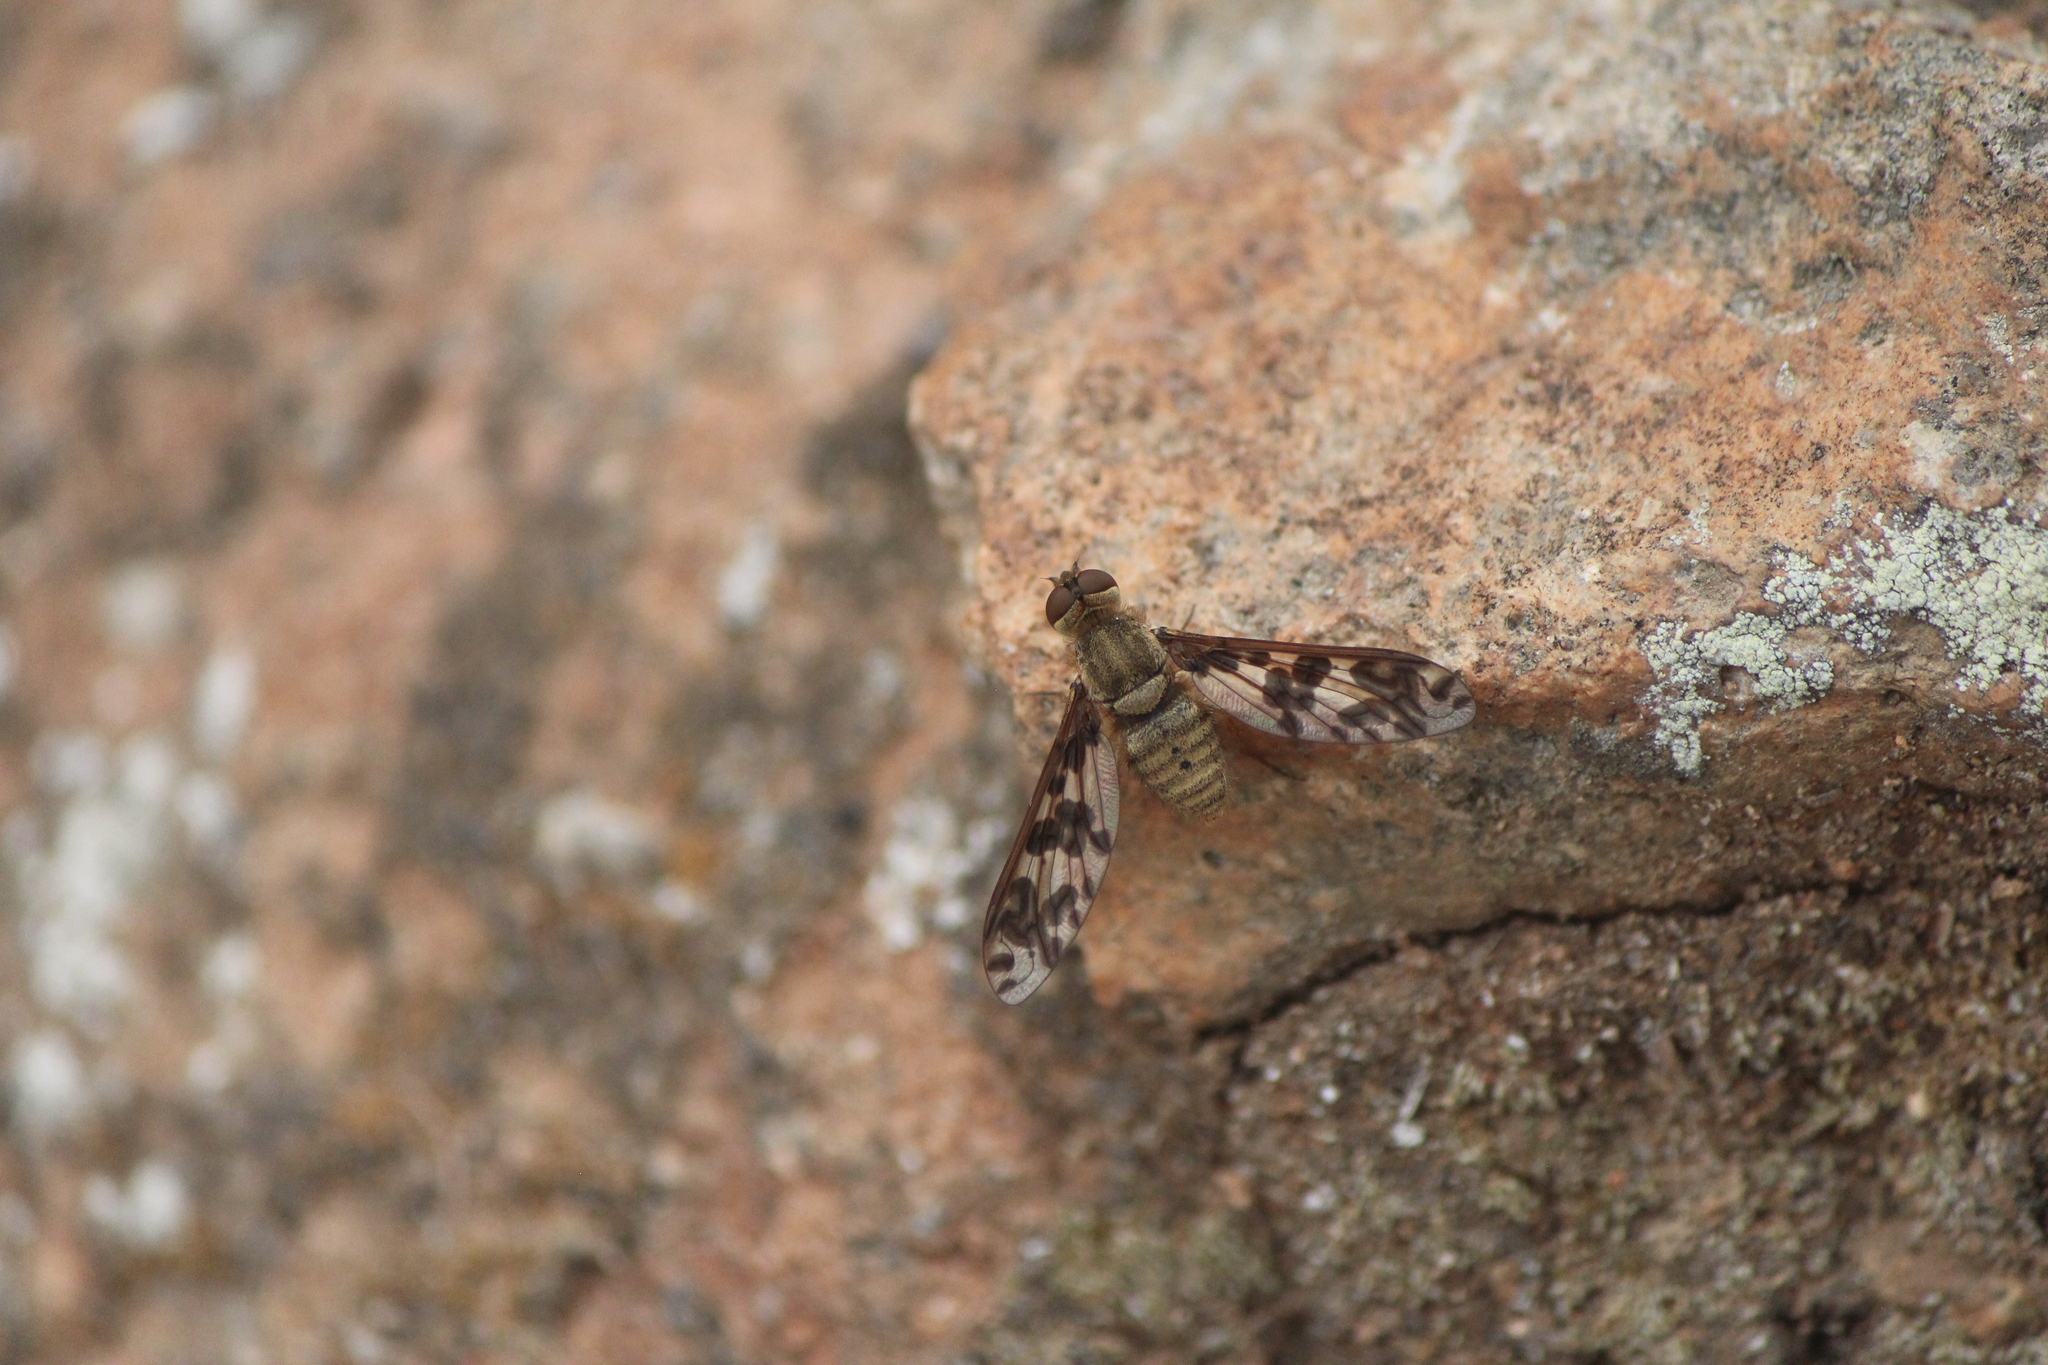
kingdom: Animalia
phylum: Arthropoda
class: Insecta
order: Diptera
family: Bombyliidae
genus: Dipalta
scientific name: Dipalta serpentina
